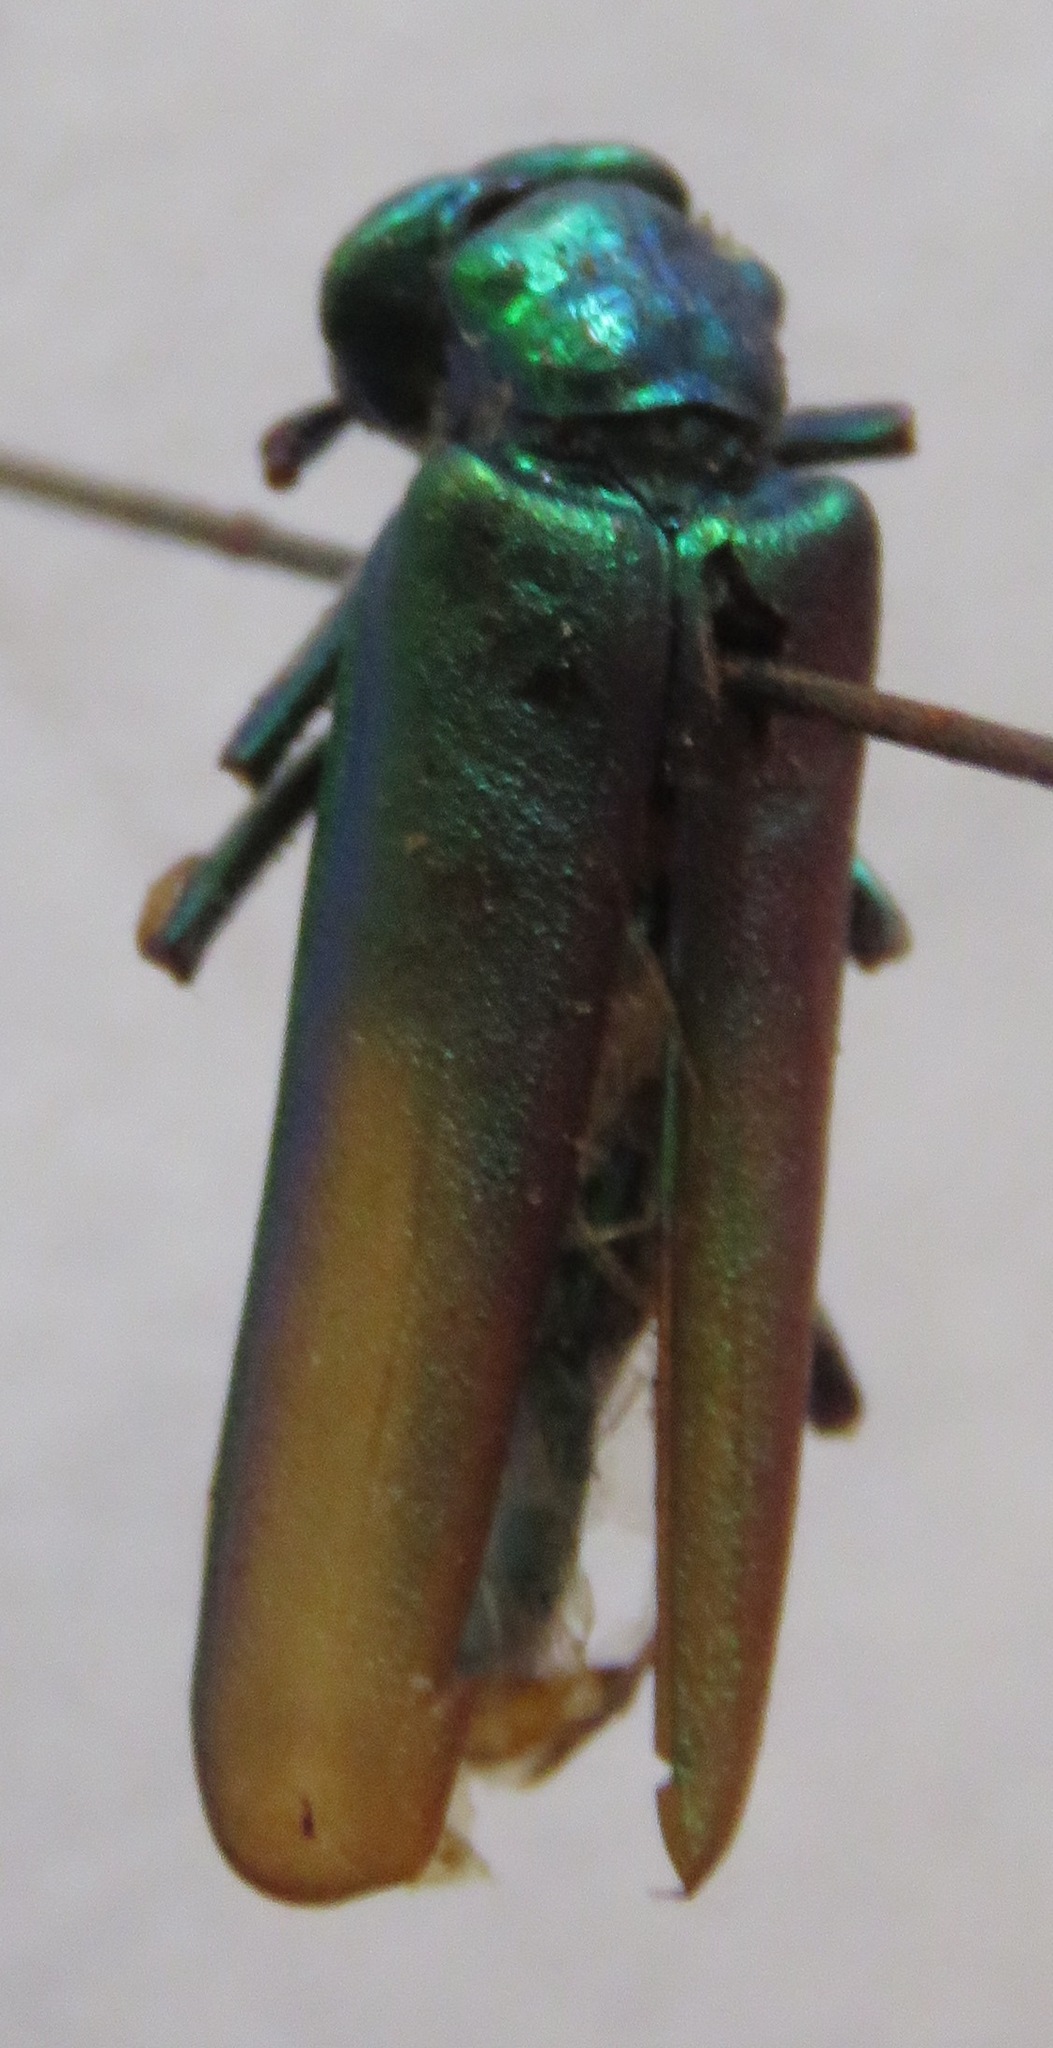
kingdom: Animalia
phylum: Arthropoda
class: Insecta
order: Coleoptera
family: Meloidae
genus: Lytta
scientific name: Lytta vesicatoria
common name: Spanish fly
